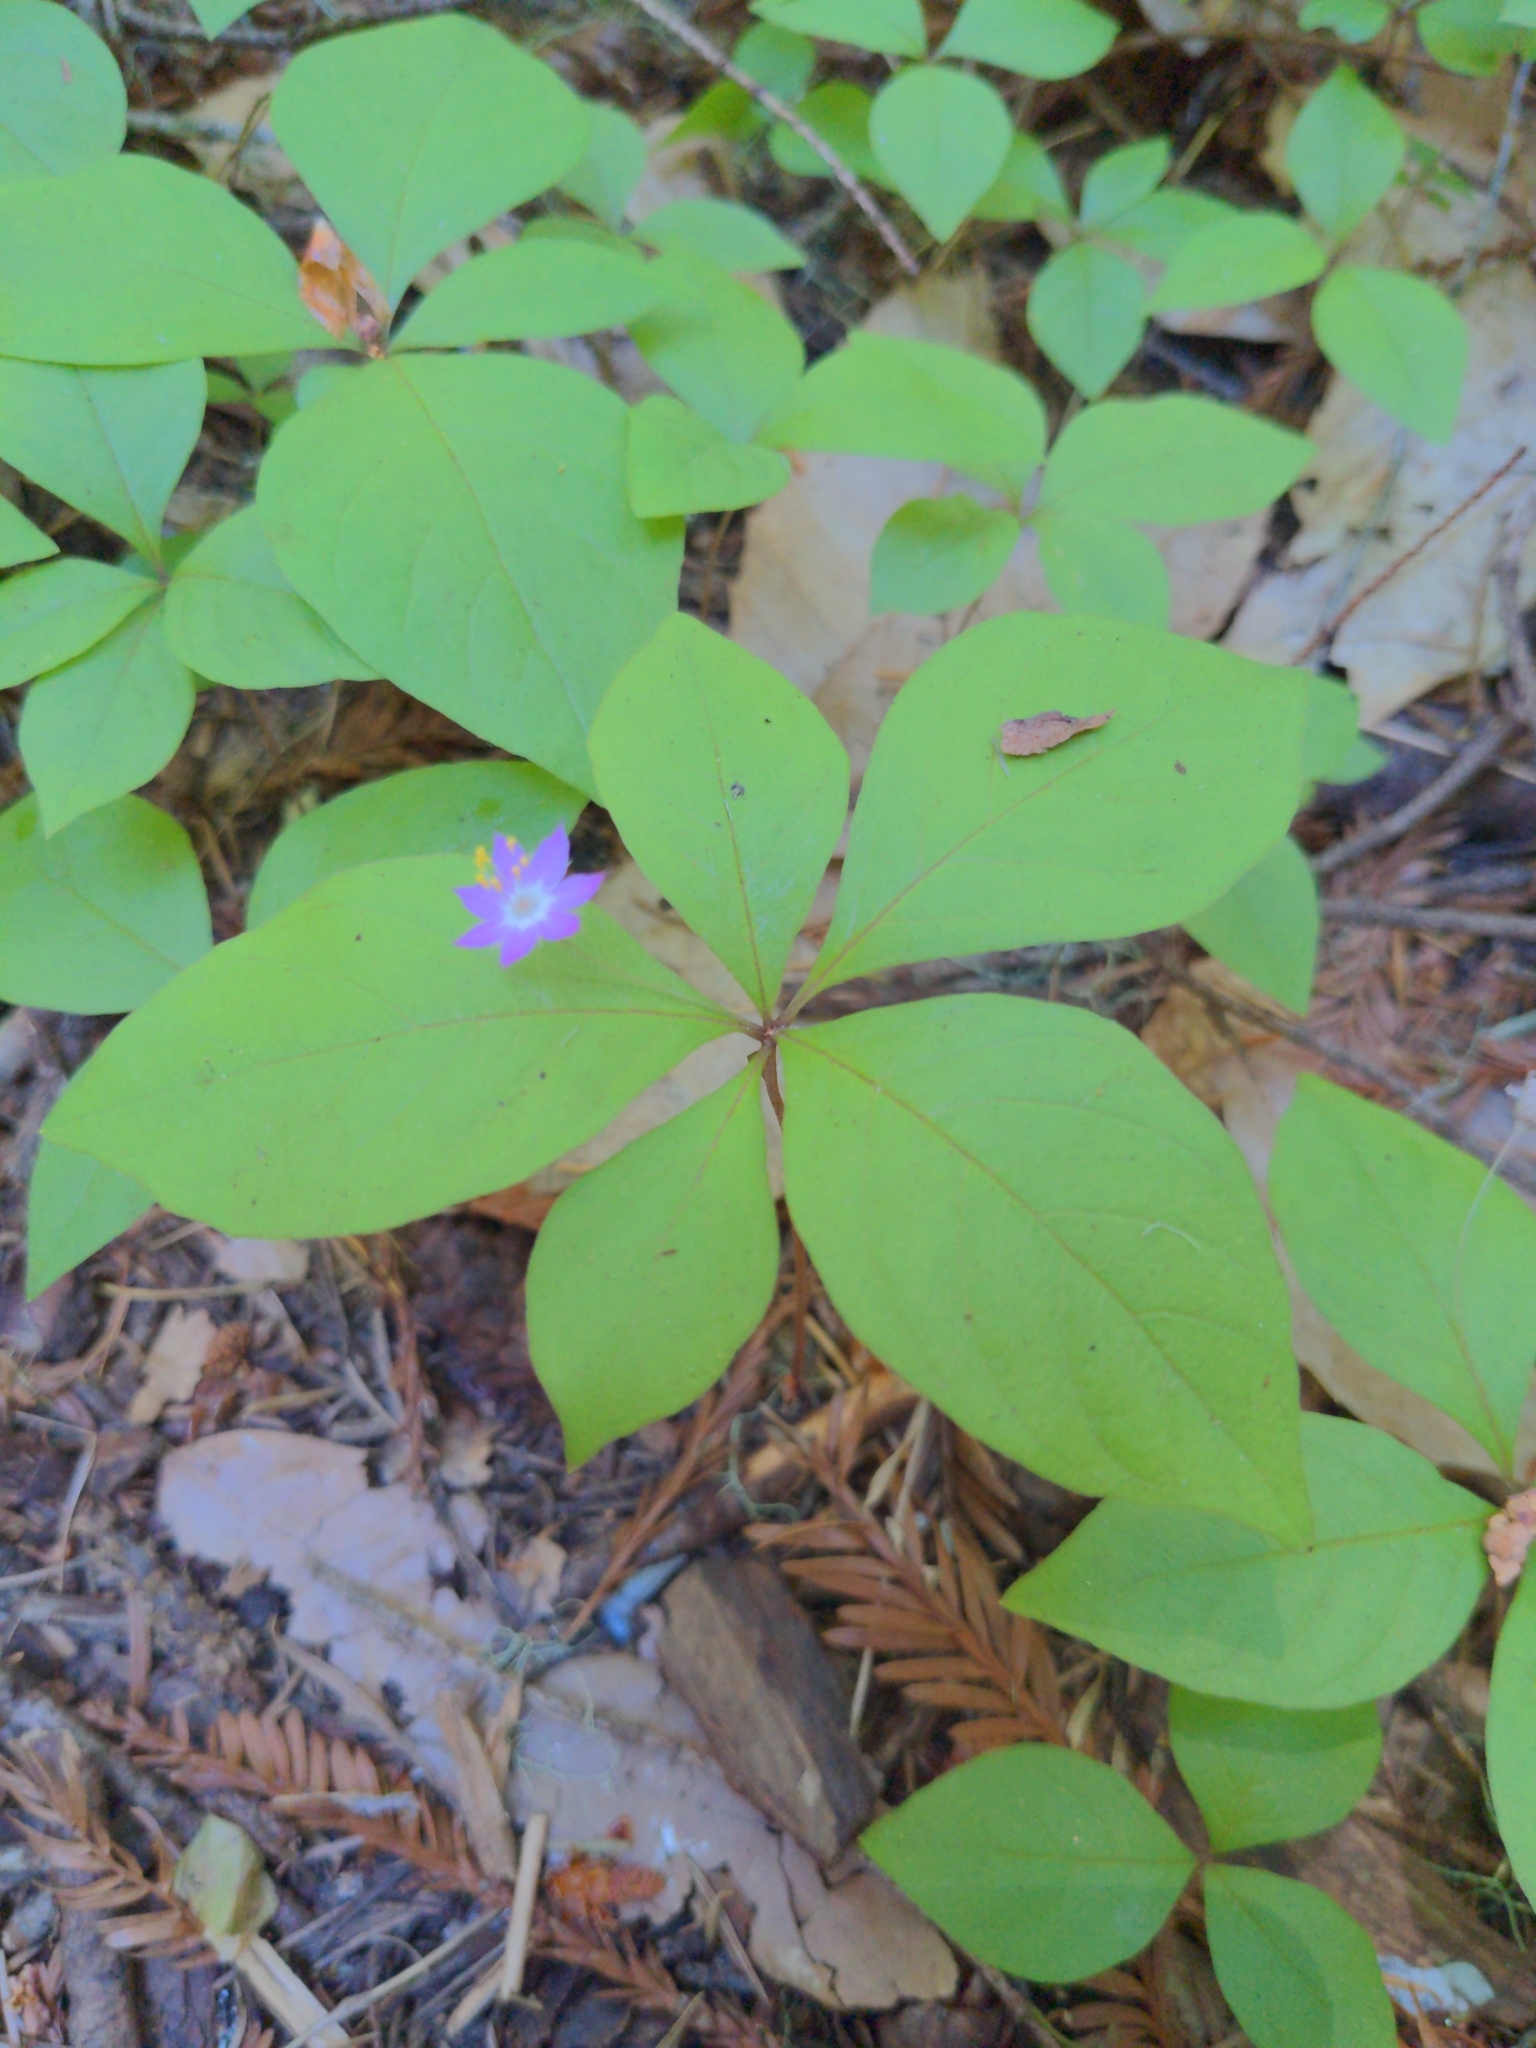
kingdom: Plantae
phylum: Tracheophyta
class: Magnoliopsida
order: Ericales
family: Primulaceae
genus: Lysimachia
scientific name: Lysimachia latifolia
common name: Pacific starflower
